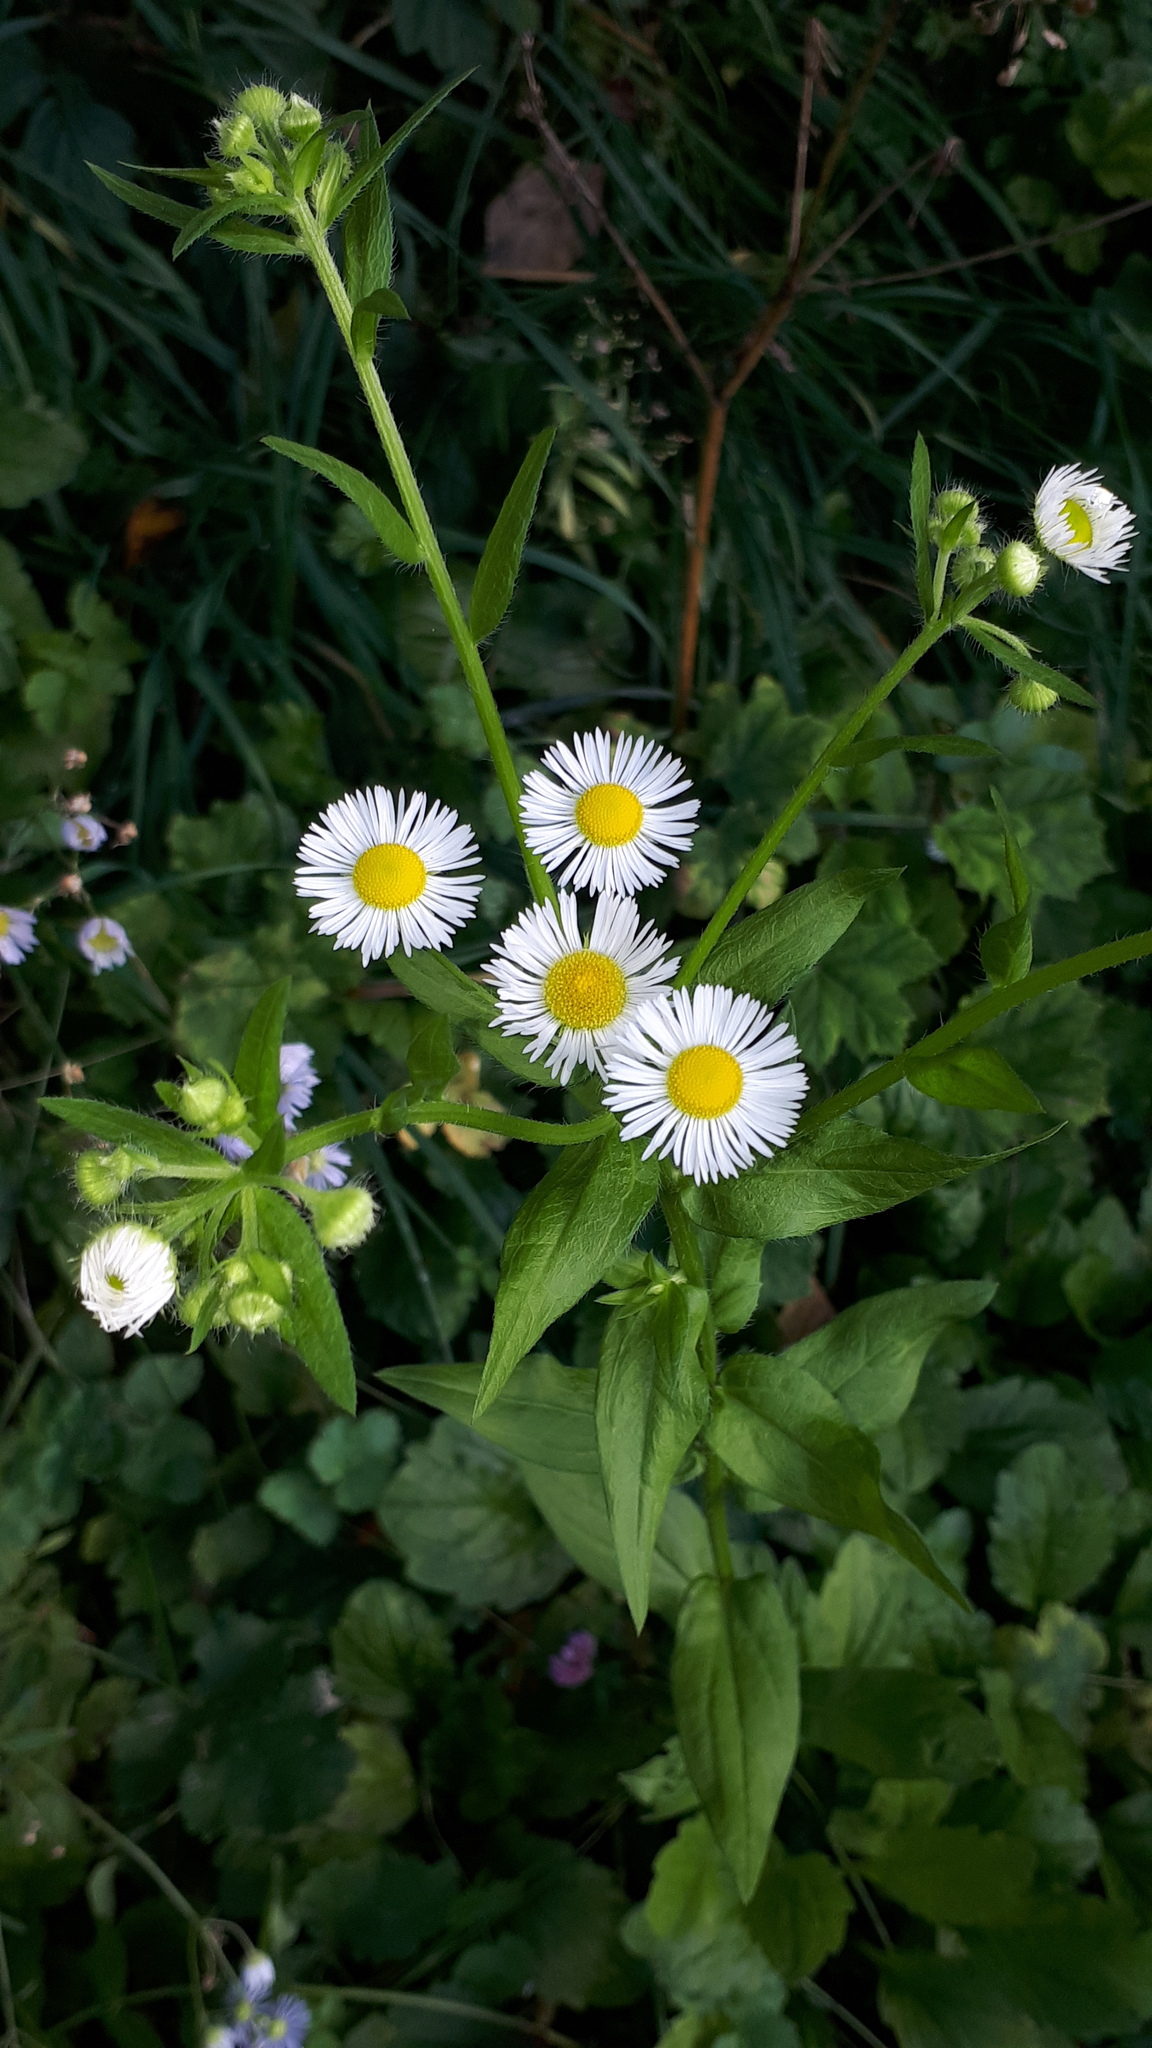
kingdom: Plantae
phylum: Tracheophyta
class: Magnoliopsida
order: Asterales
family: Asteraceae
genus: Erigeron
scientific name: Erigeron annuus
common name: Tall fleabane
